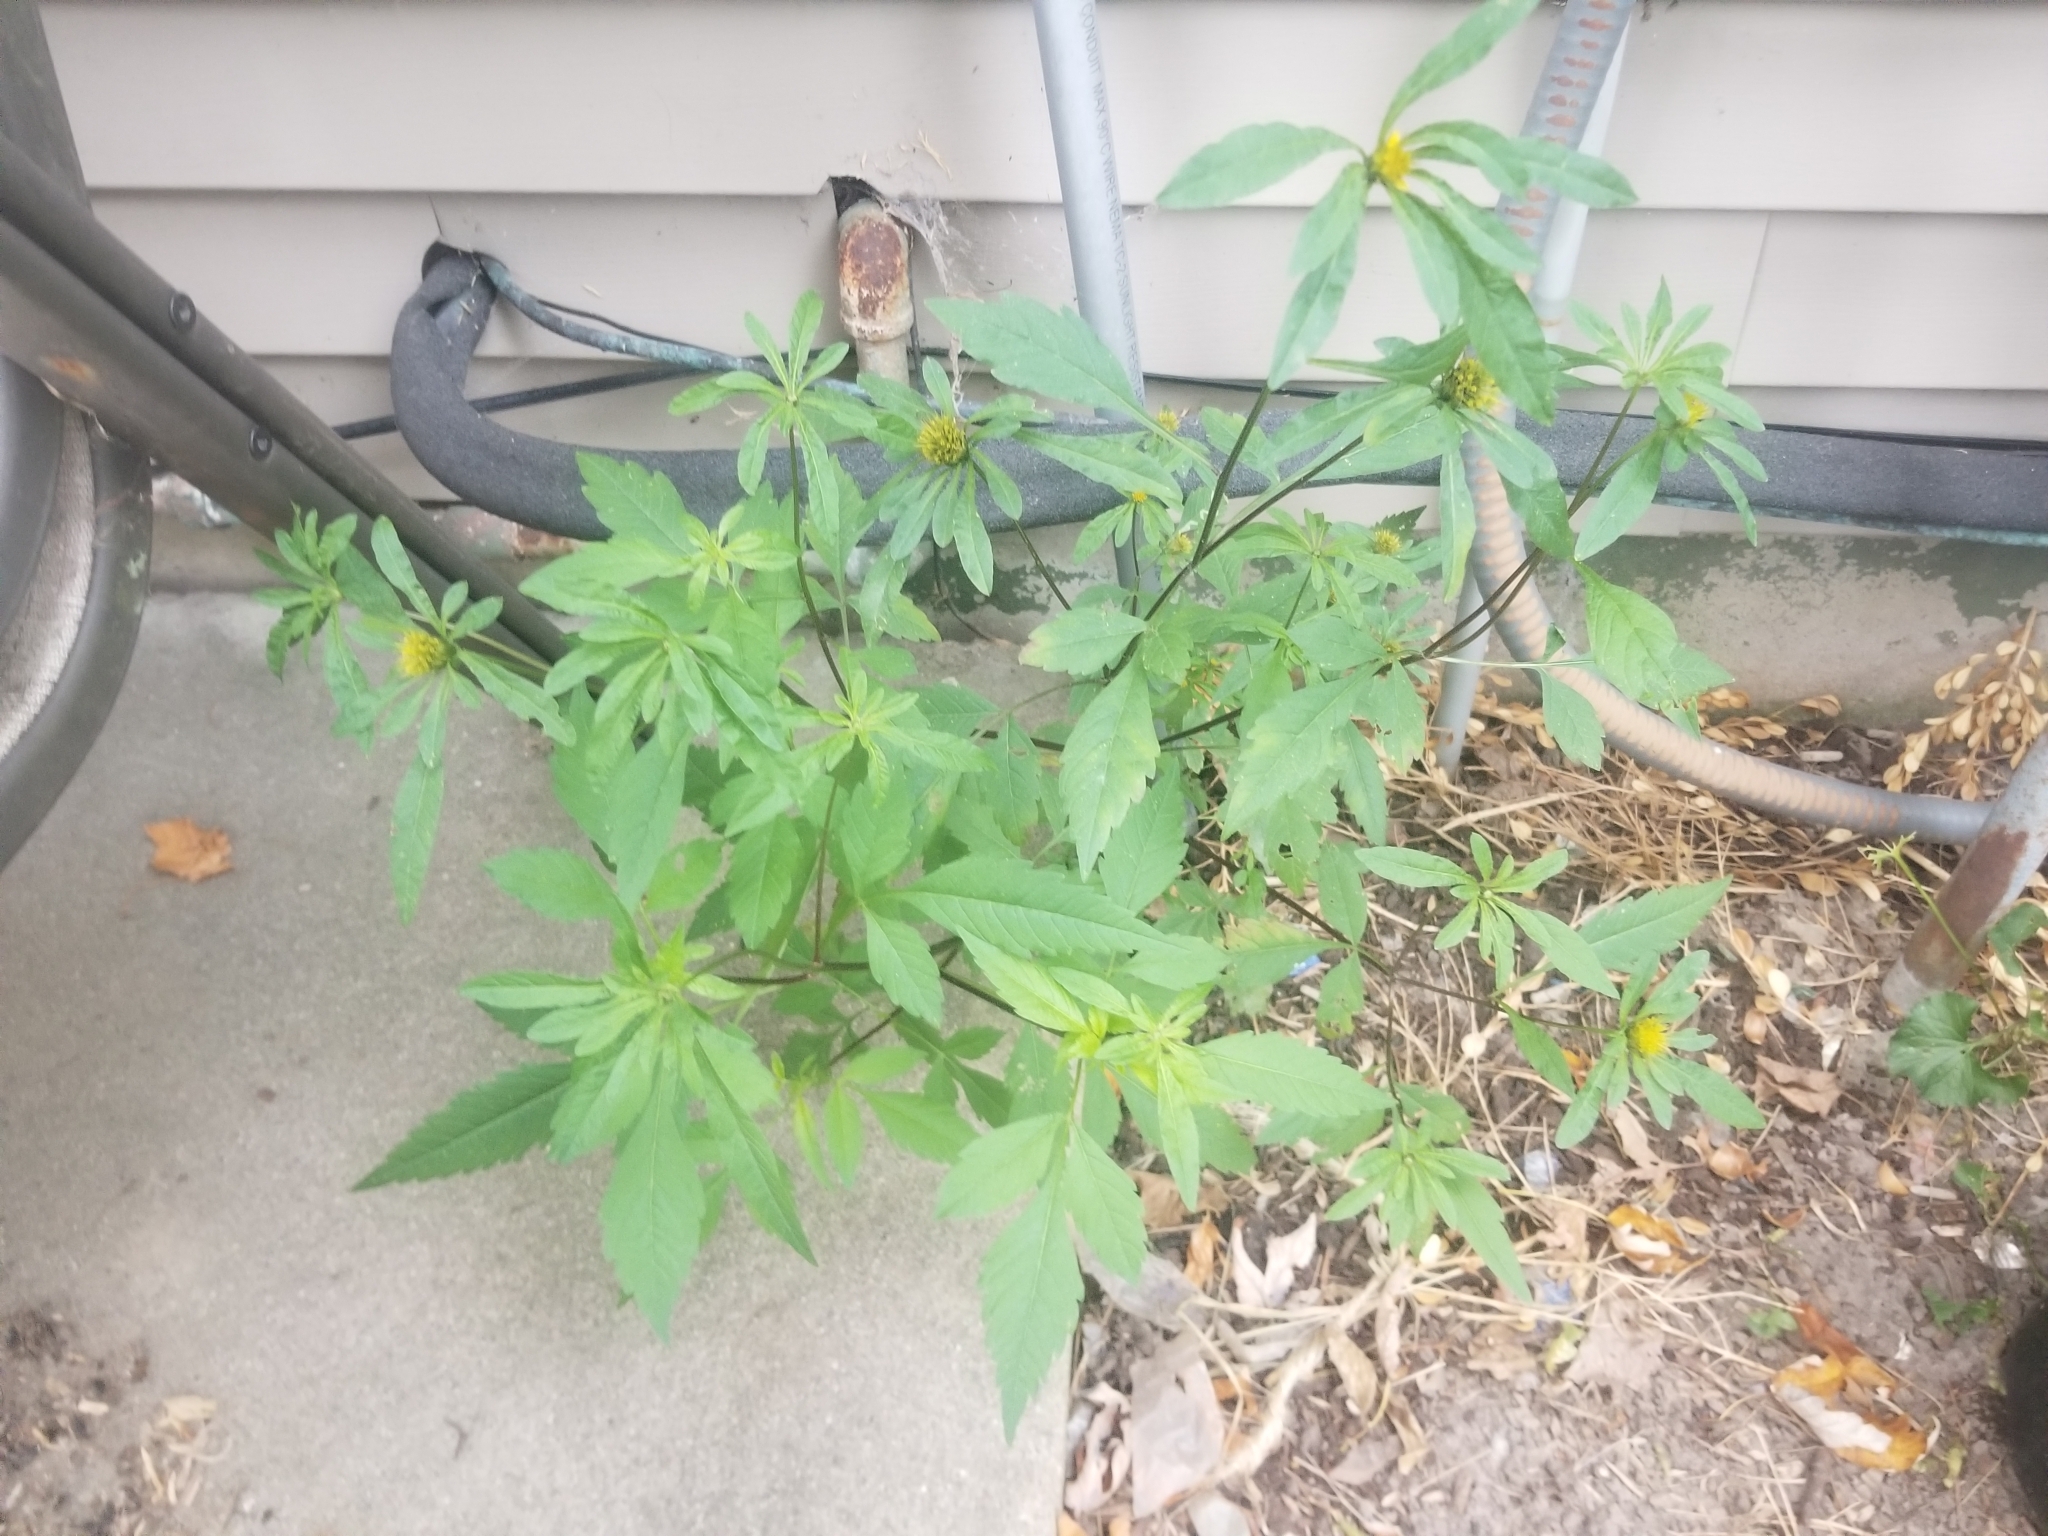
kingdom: Plantae
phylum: Tracheophyta
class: Magnoliopsida
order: Asterales
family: Asteraceae
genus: Bidens
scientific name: Bidens vulgata
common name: Tall beggarticks
